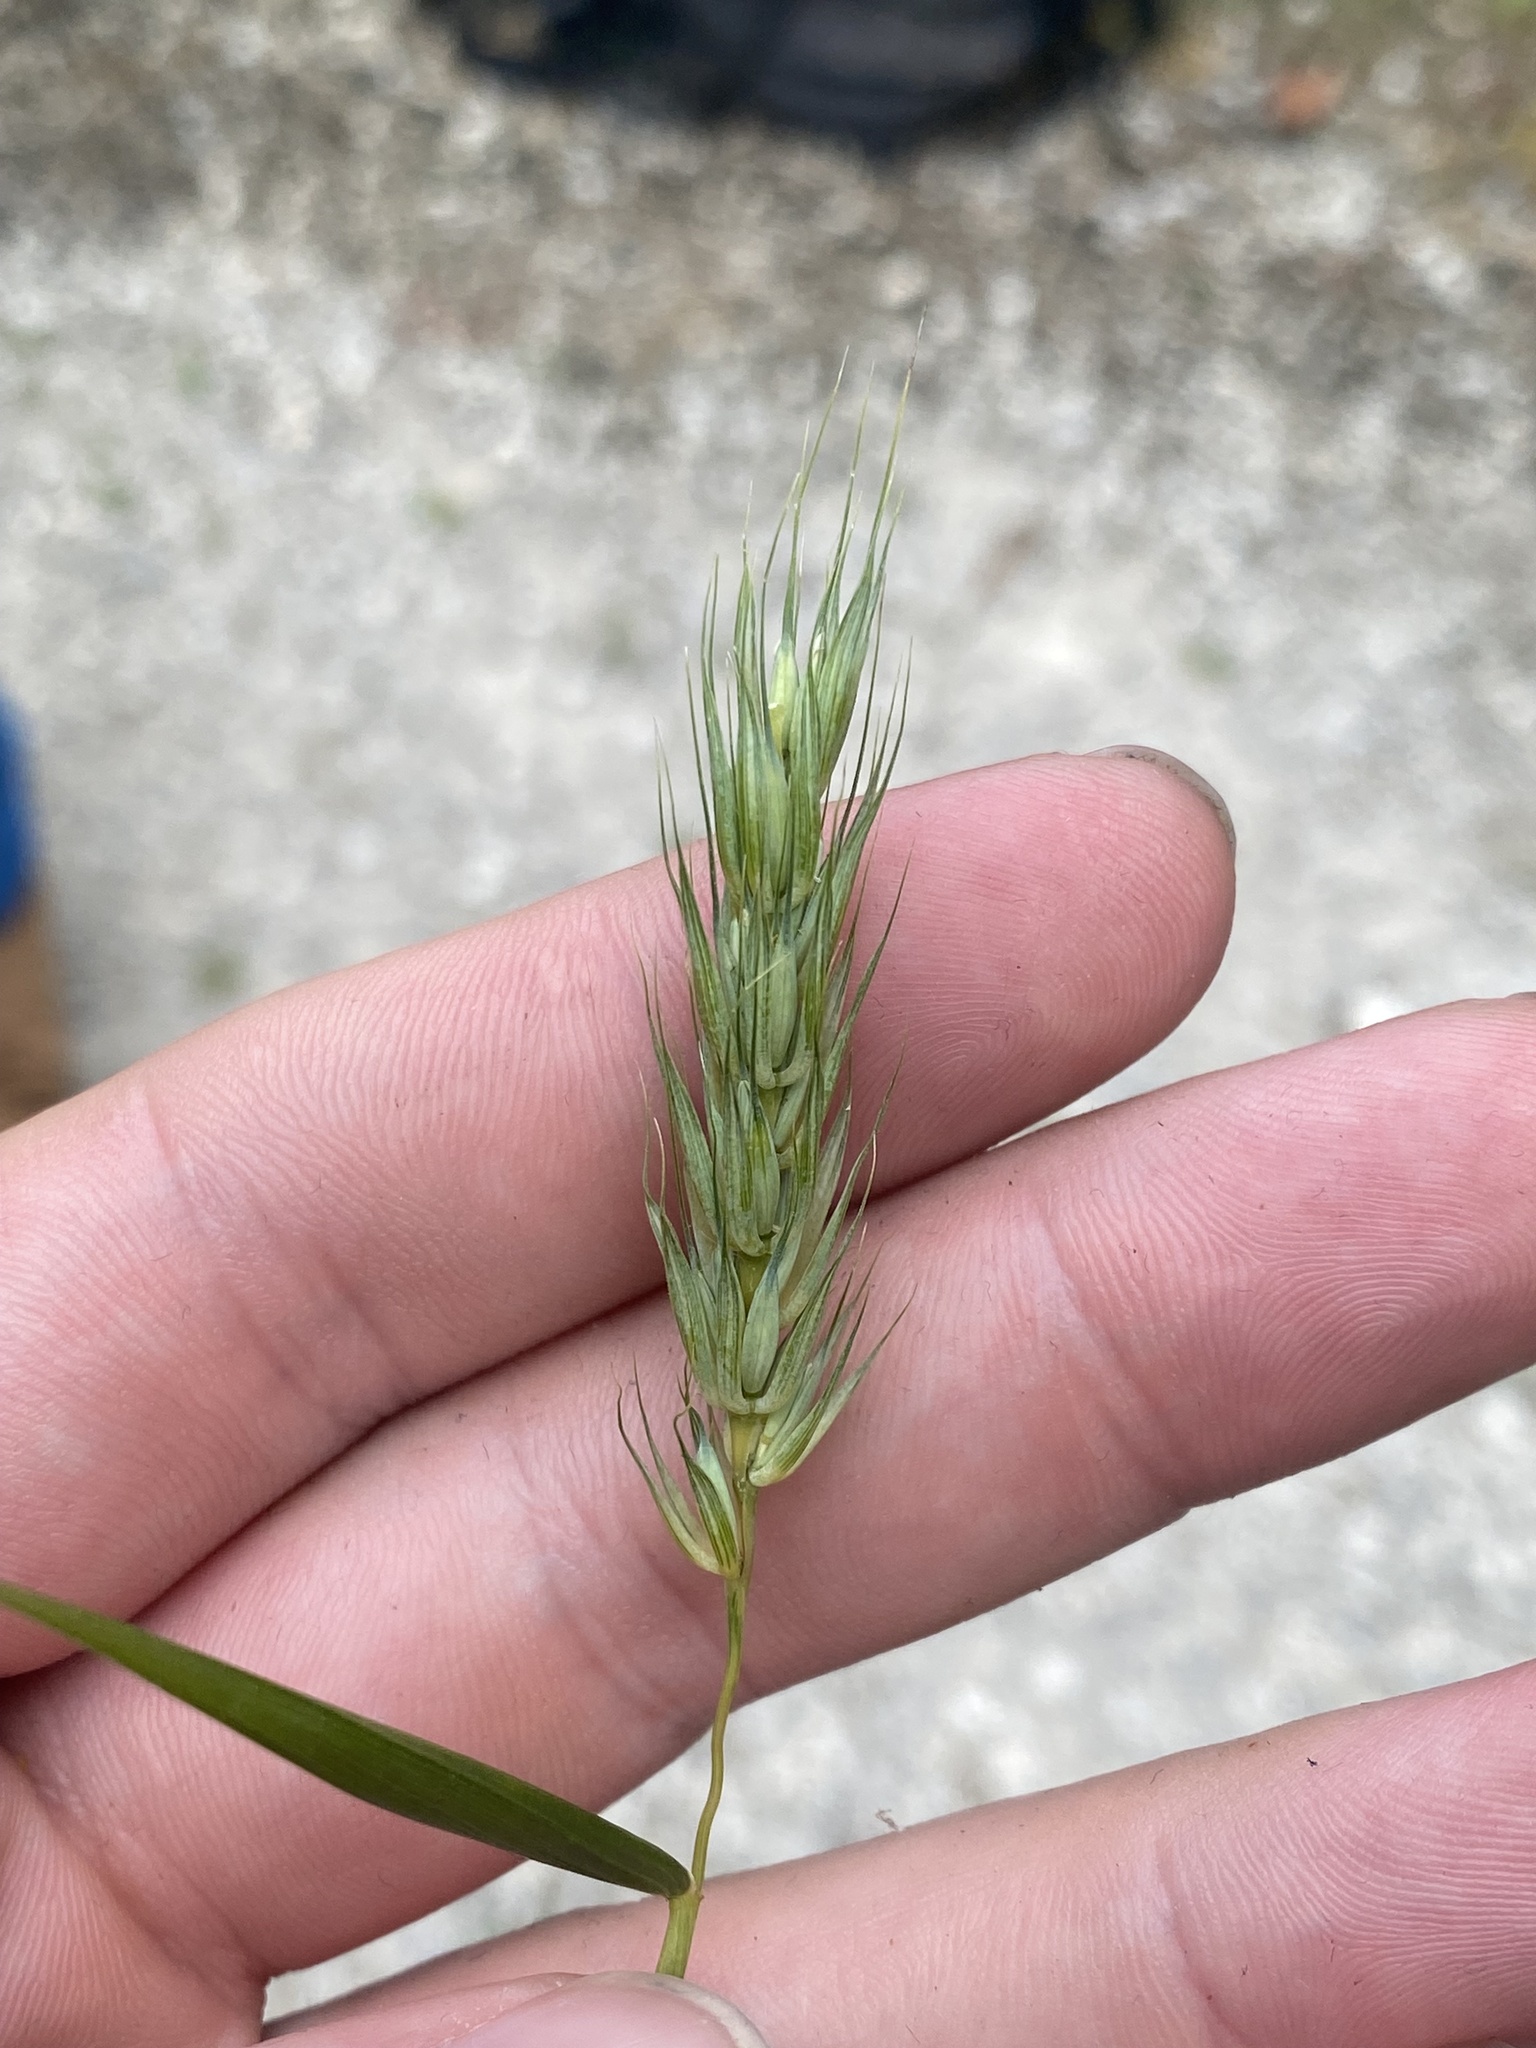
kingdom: Plantae
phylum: Tracheophyta
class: Liliopsida
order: Poales
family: Poaceae
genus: Elymus
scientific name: Elymus virginicus
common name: Common eastern wildrye
